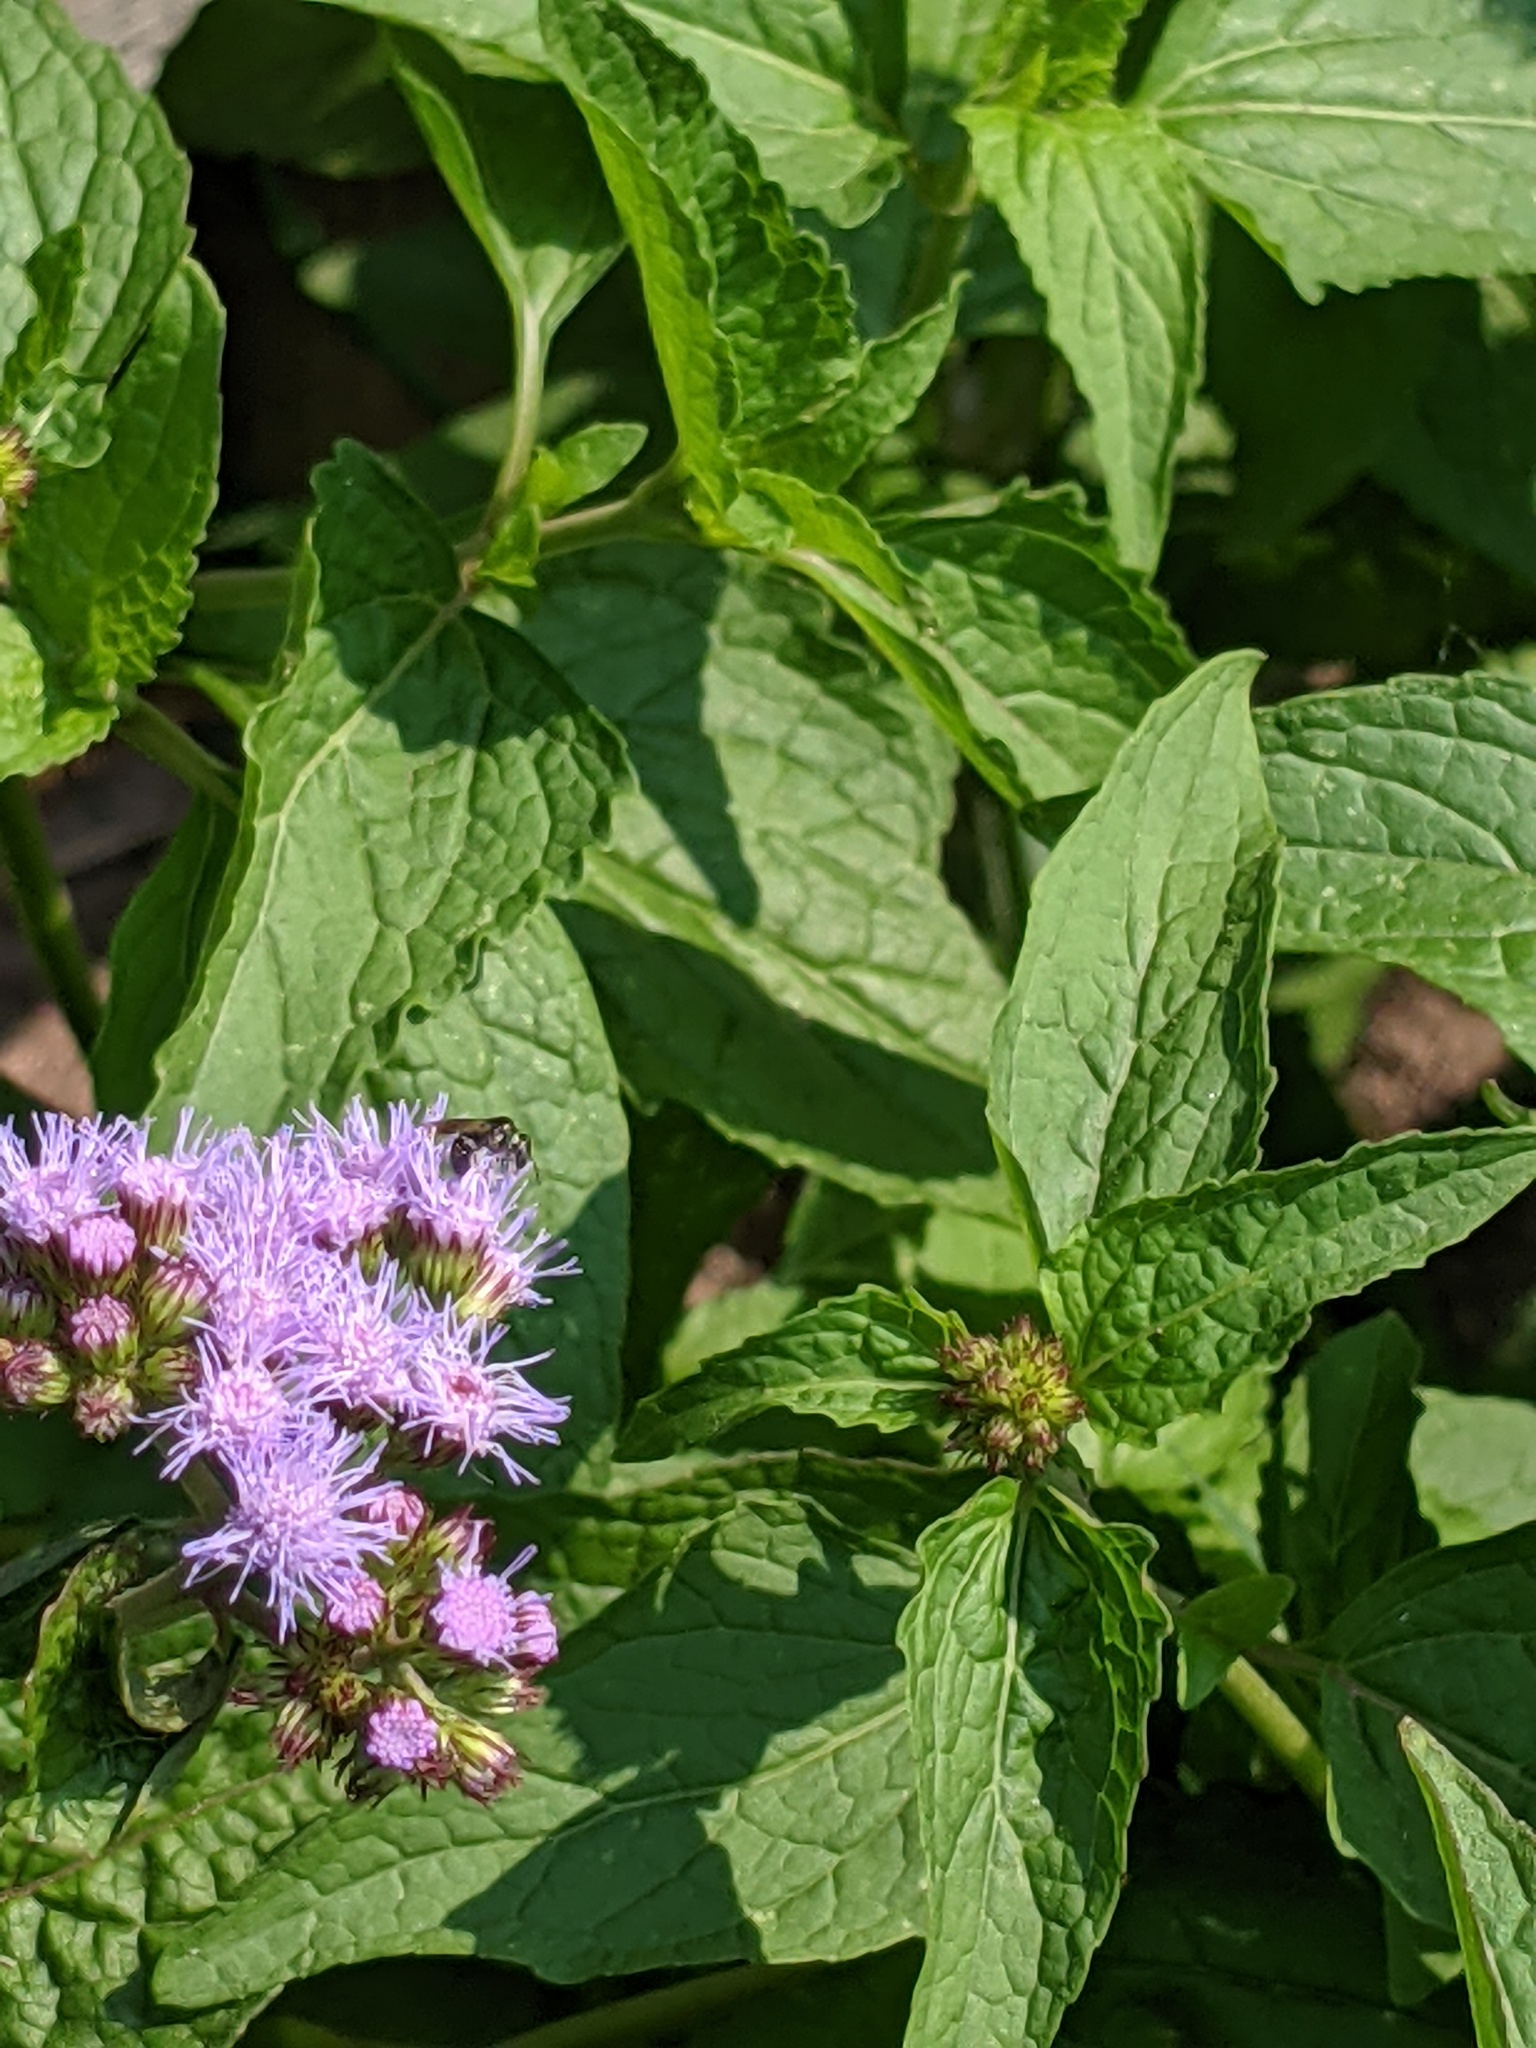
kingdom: Animalia
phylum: Arthropoda
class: Insecta
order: Hymenoptera
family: Halictidae
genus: Dialictus
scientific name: Dialictus
